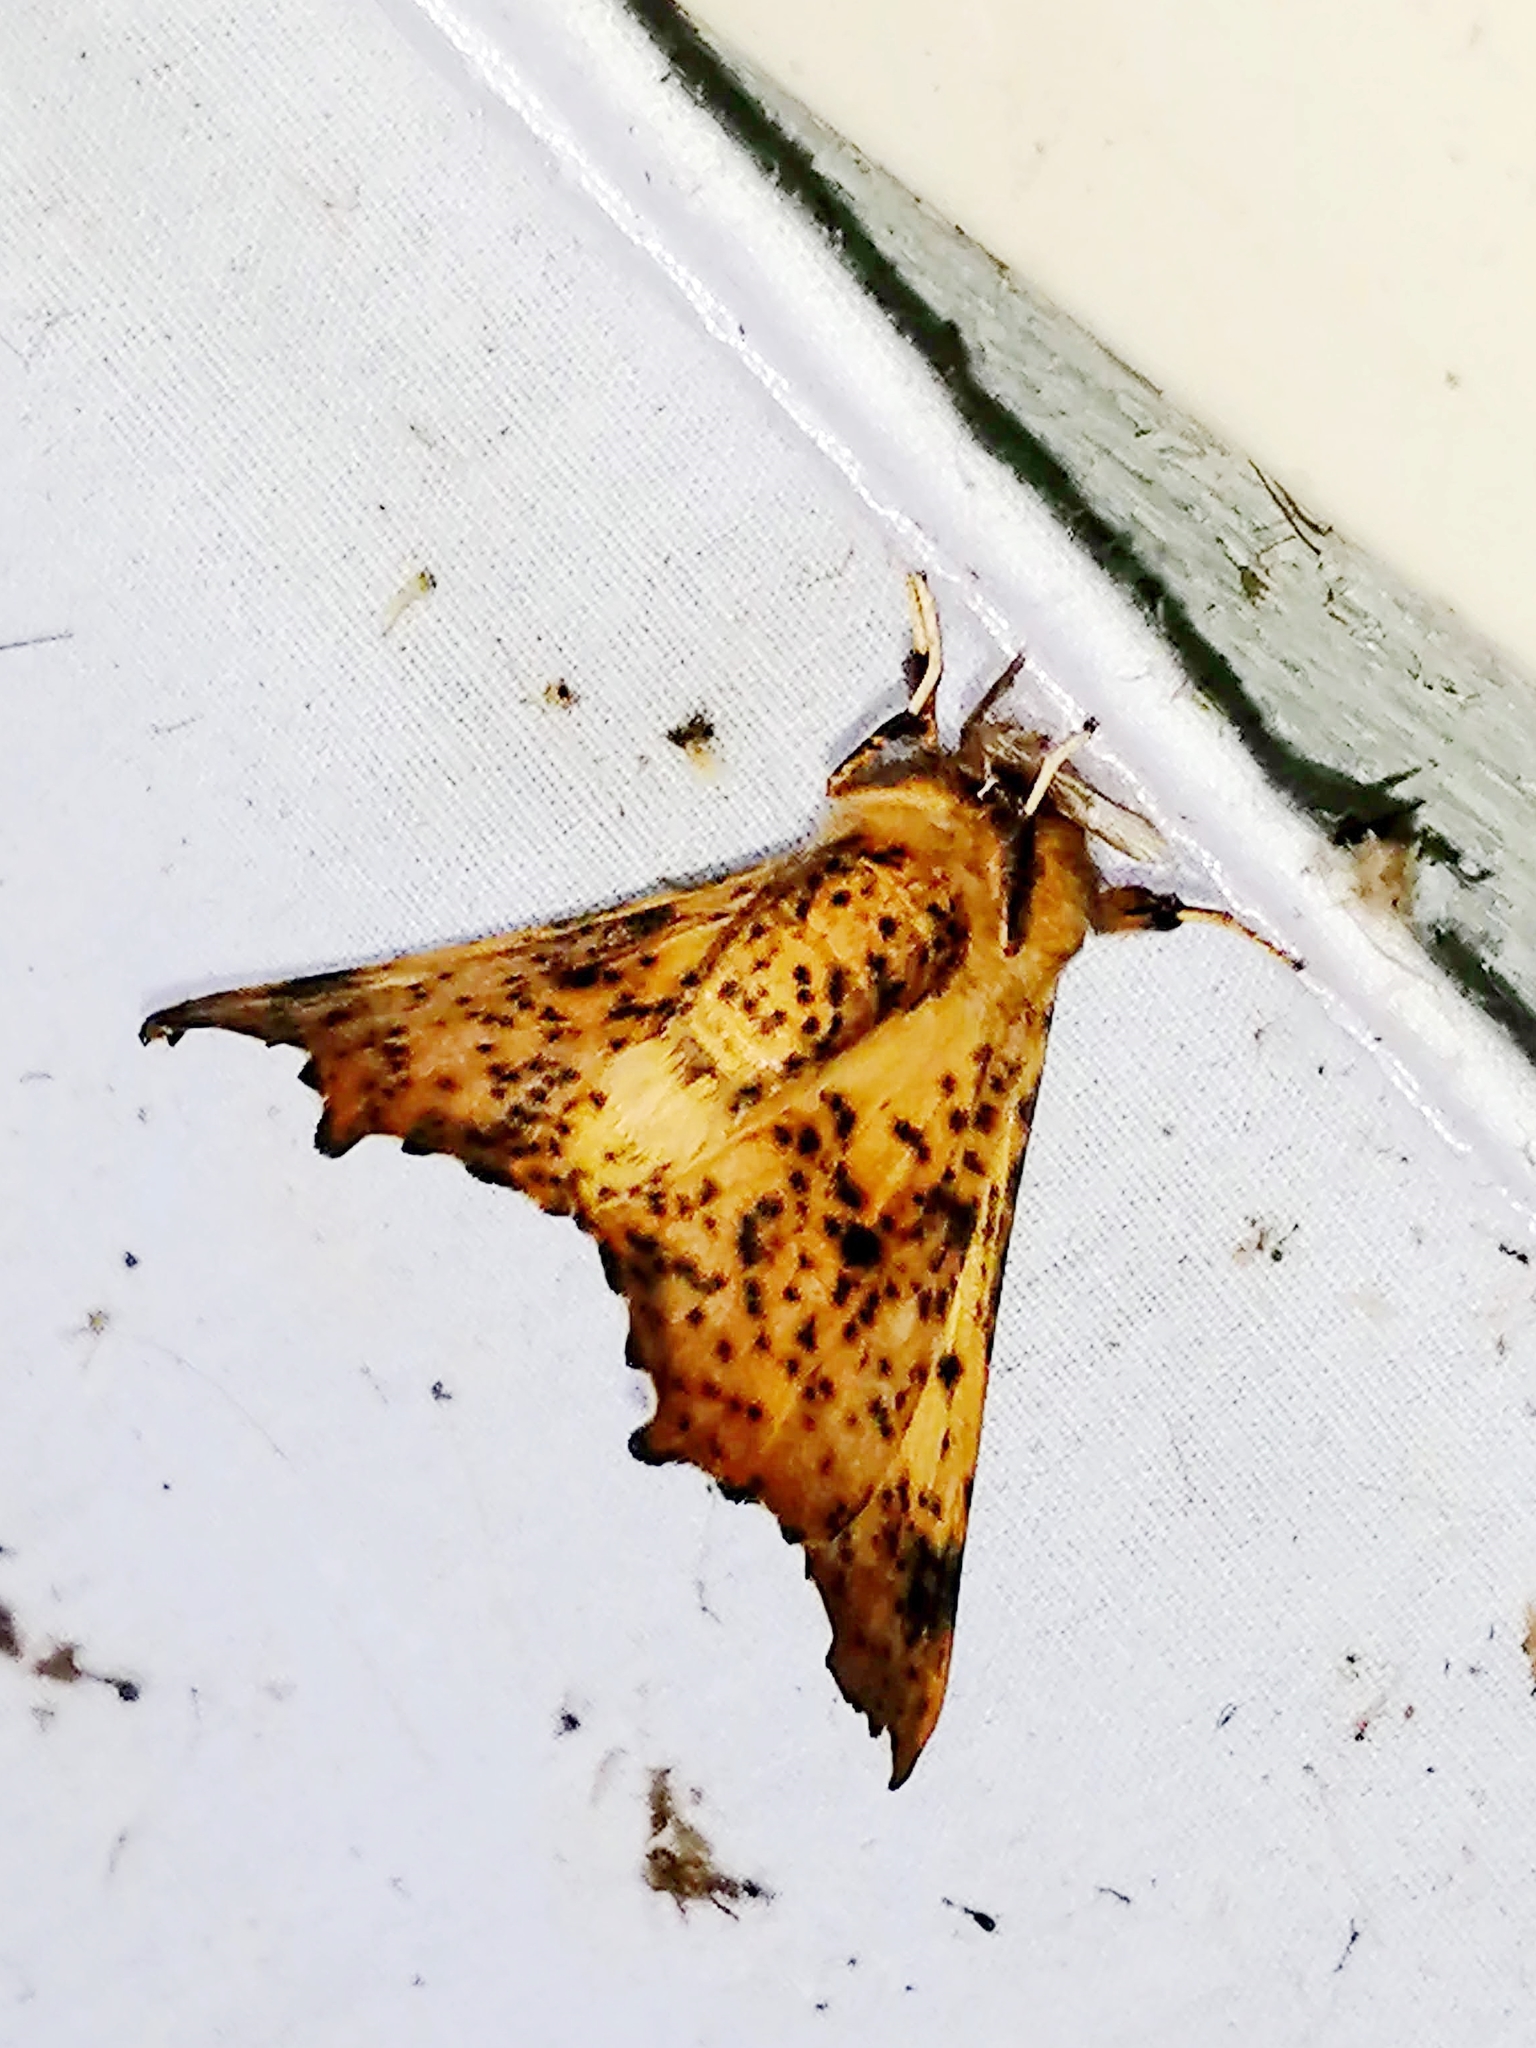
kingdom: Animalia
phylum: Arthropoda
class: Insecta
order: Lepidoptera
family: Geometridae
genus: Ennomos
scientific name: Ennomos magnaria
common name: Maple spanworm
